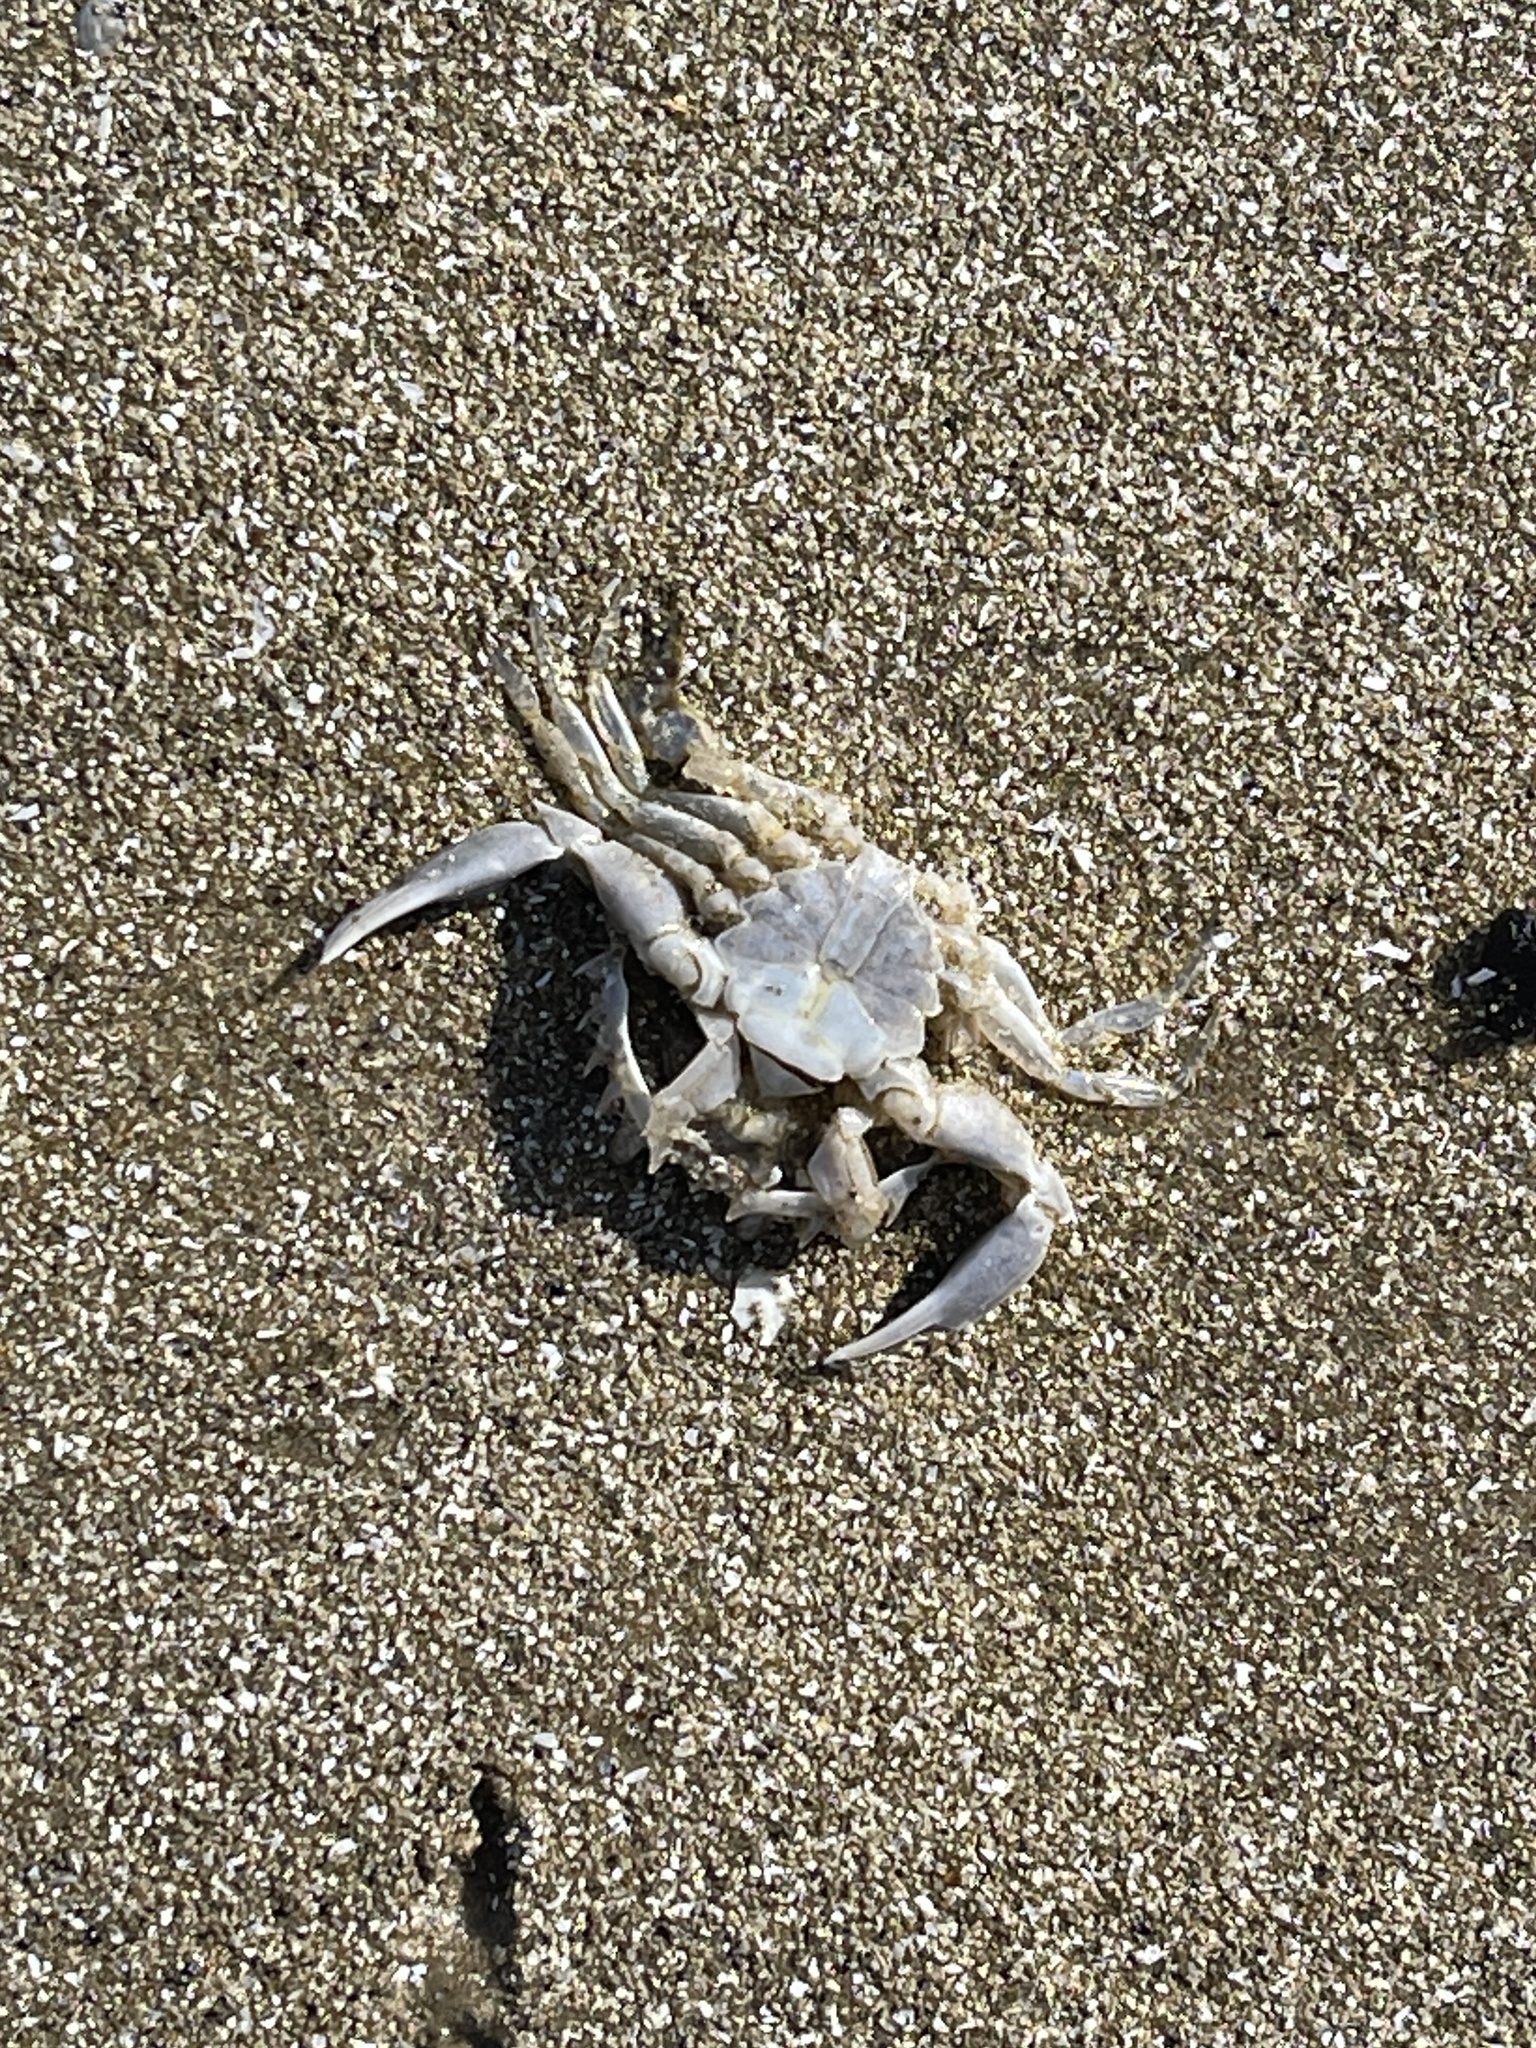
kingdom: Animalia
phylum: Arthropoda
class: Malacostraca
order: Decapoda
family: Ovalipidae
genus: Ovalipes
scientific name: Ovalipes floridanus
